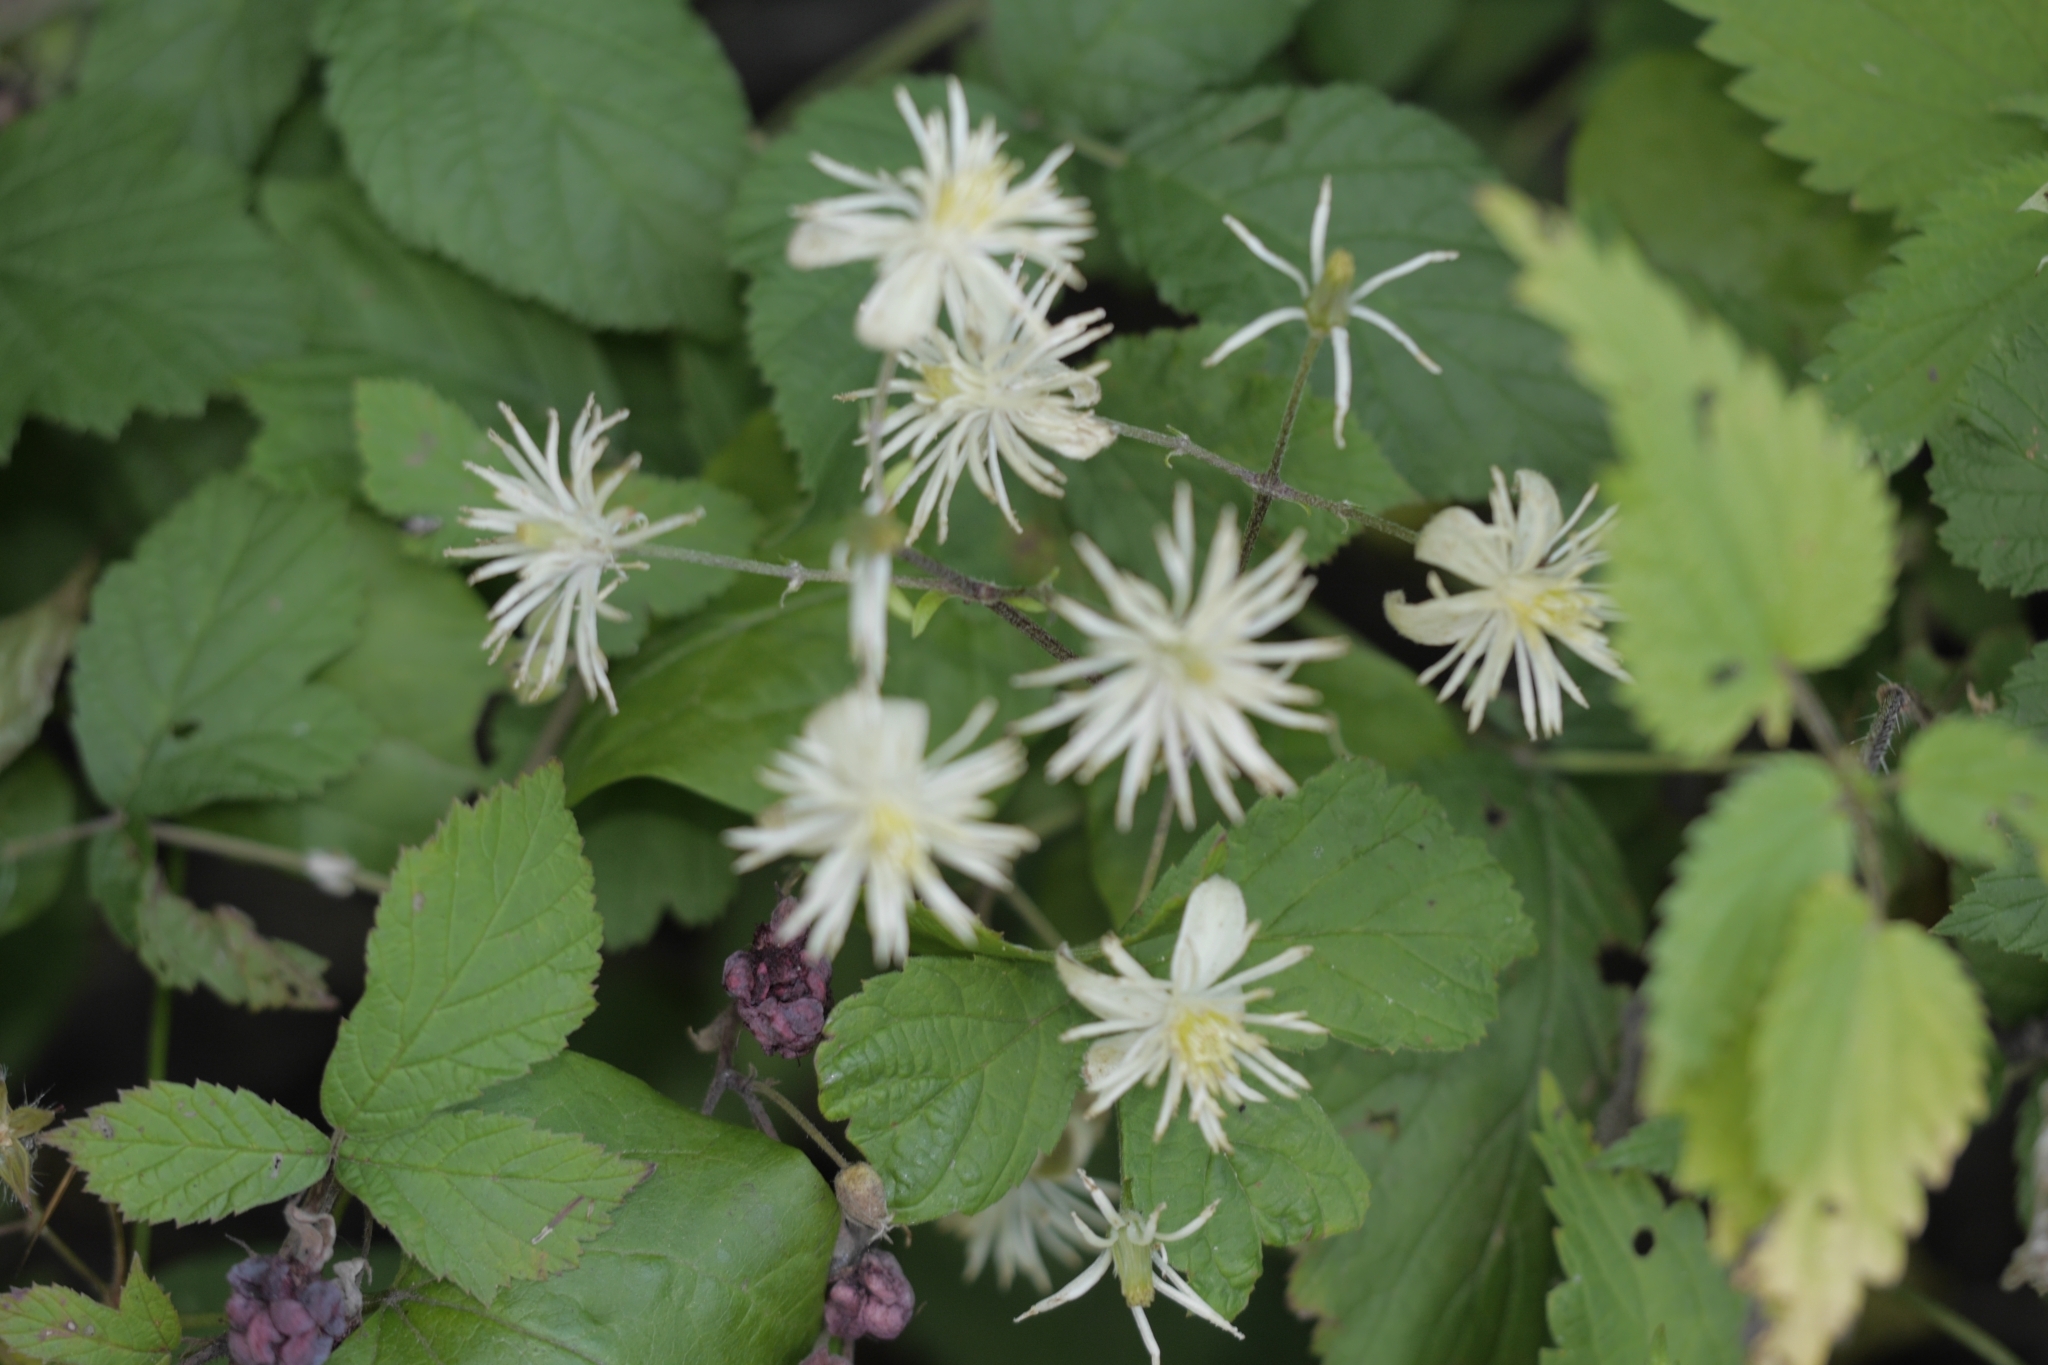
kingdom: Plantae
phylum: Tracheophyta
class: Magnoliopsida
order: Ranunculales
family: Ranunculaceae
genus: Clematis
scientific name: Clematis vitalba
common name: Evergreen clematis
